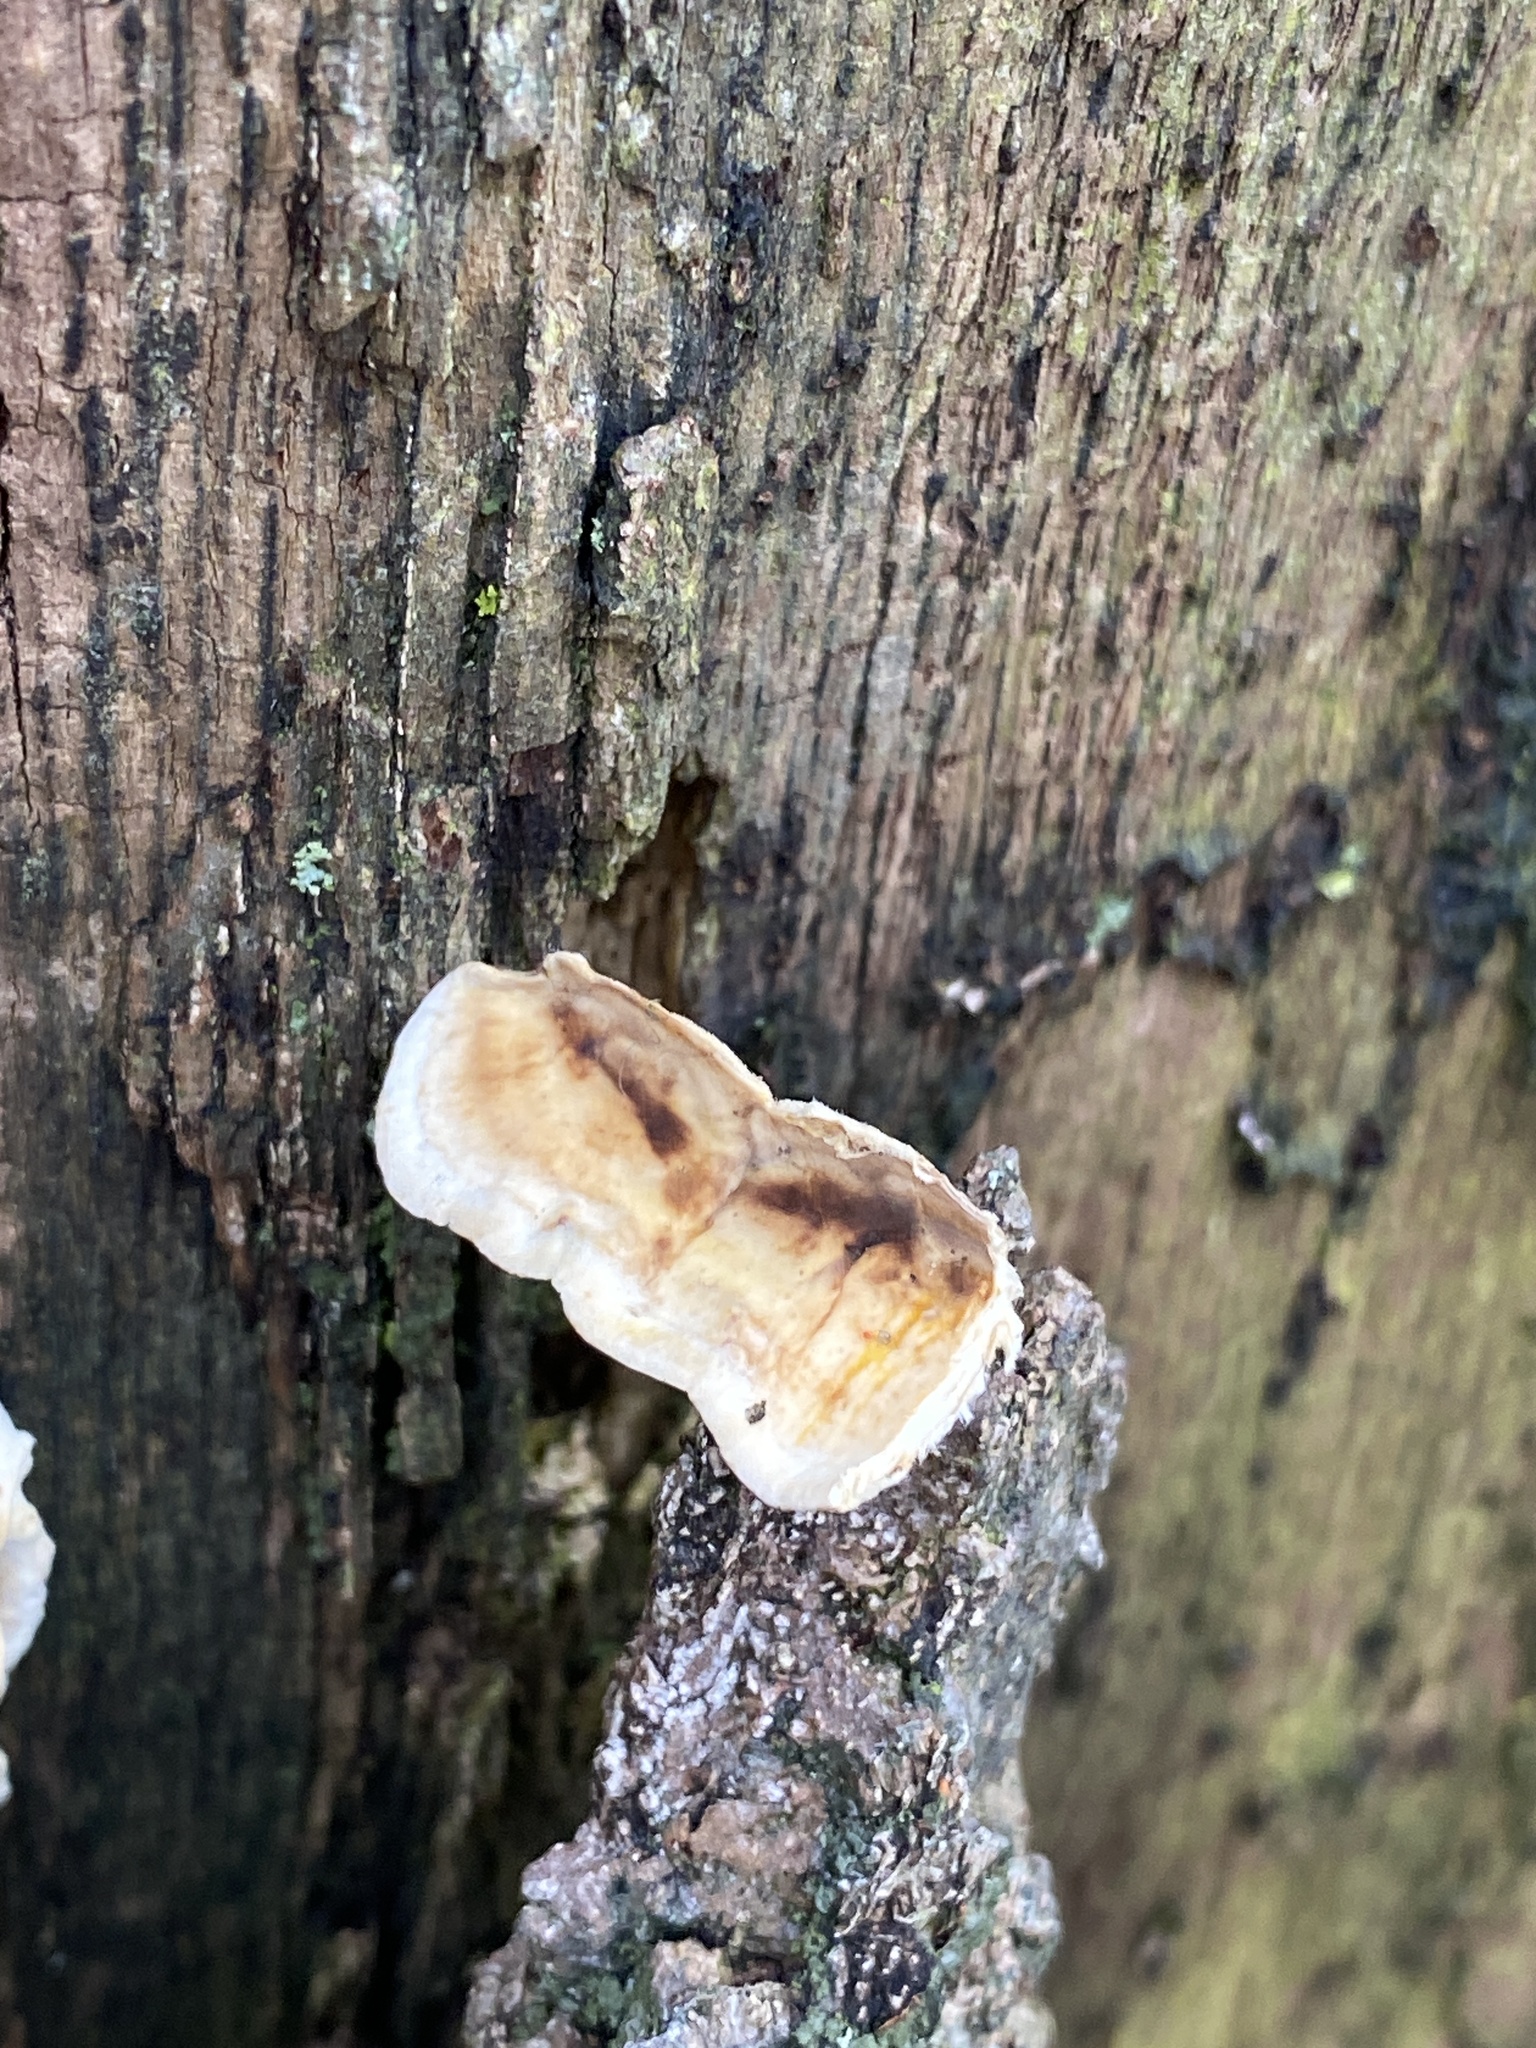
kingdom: Fungi
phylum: Basidiomycota
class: Agaricomycetes
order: Russulales
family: Stereaceae
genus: Stereum
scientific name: Stereum lobatum
